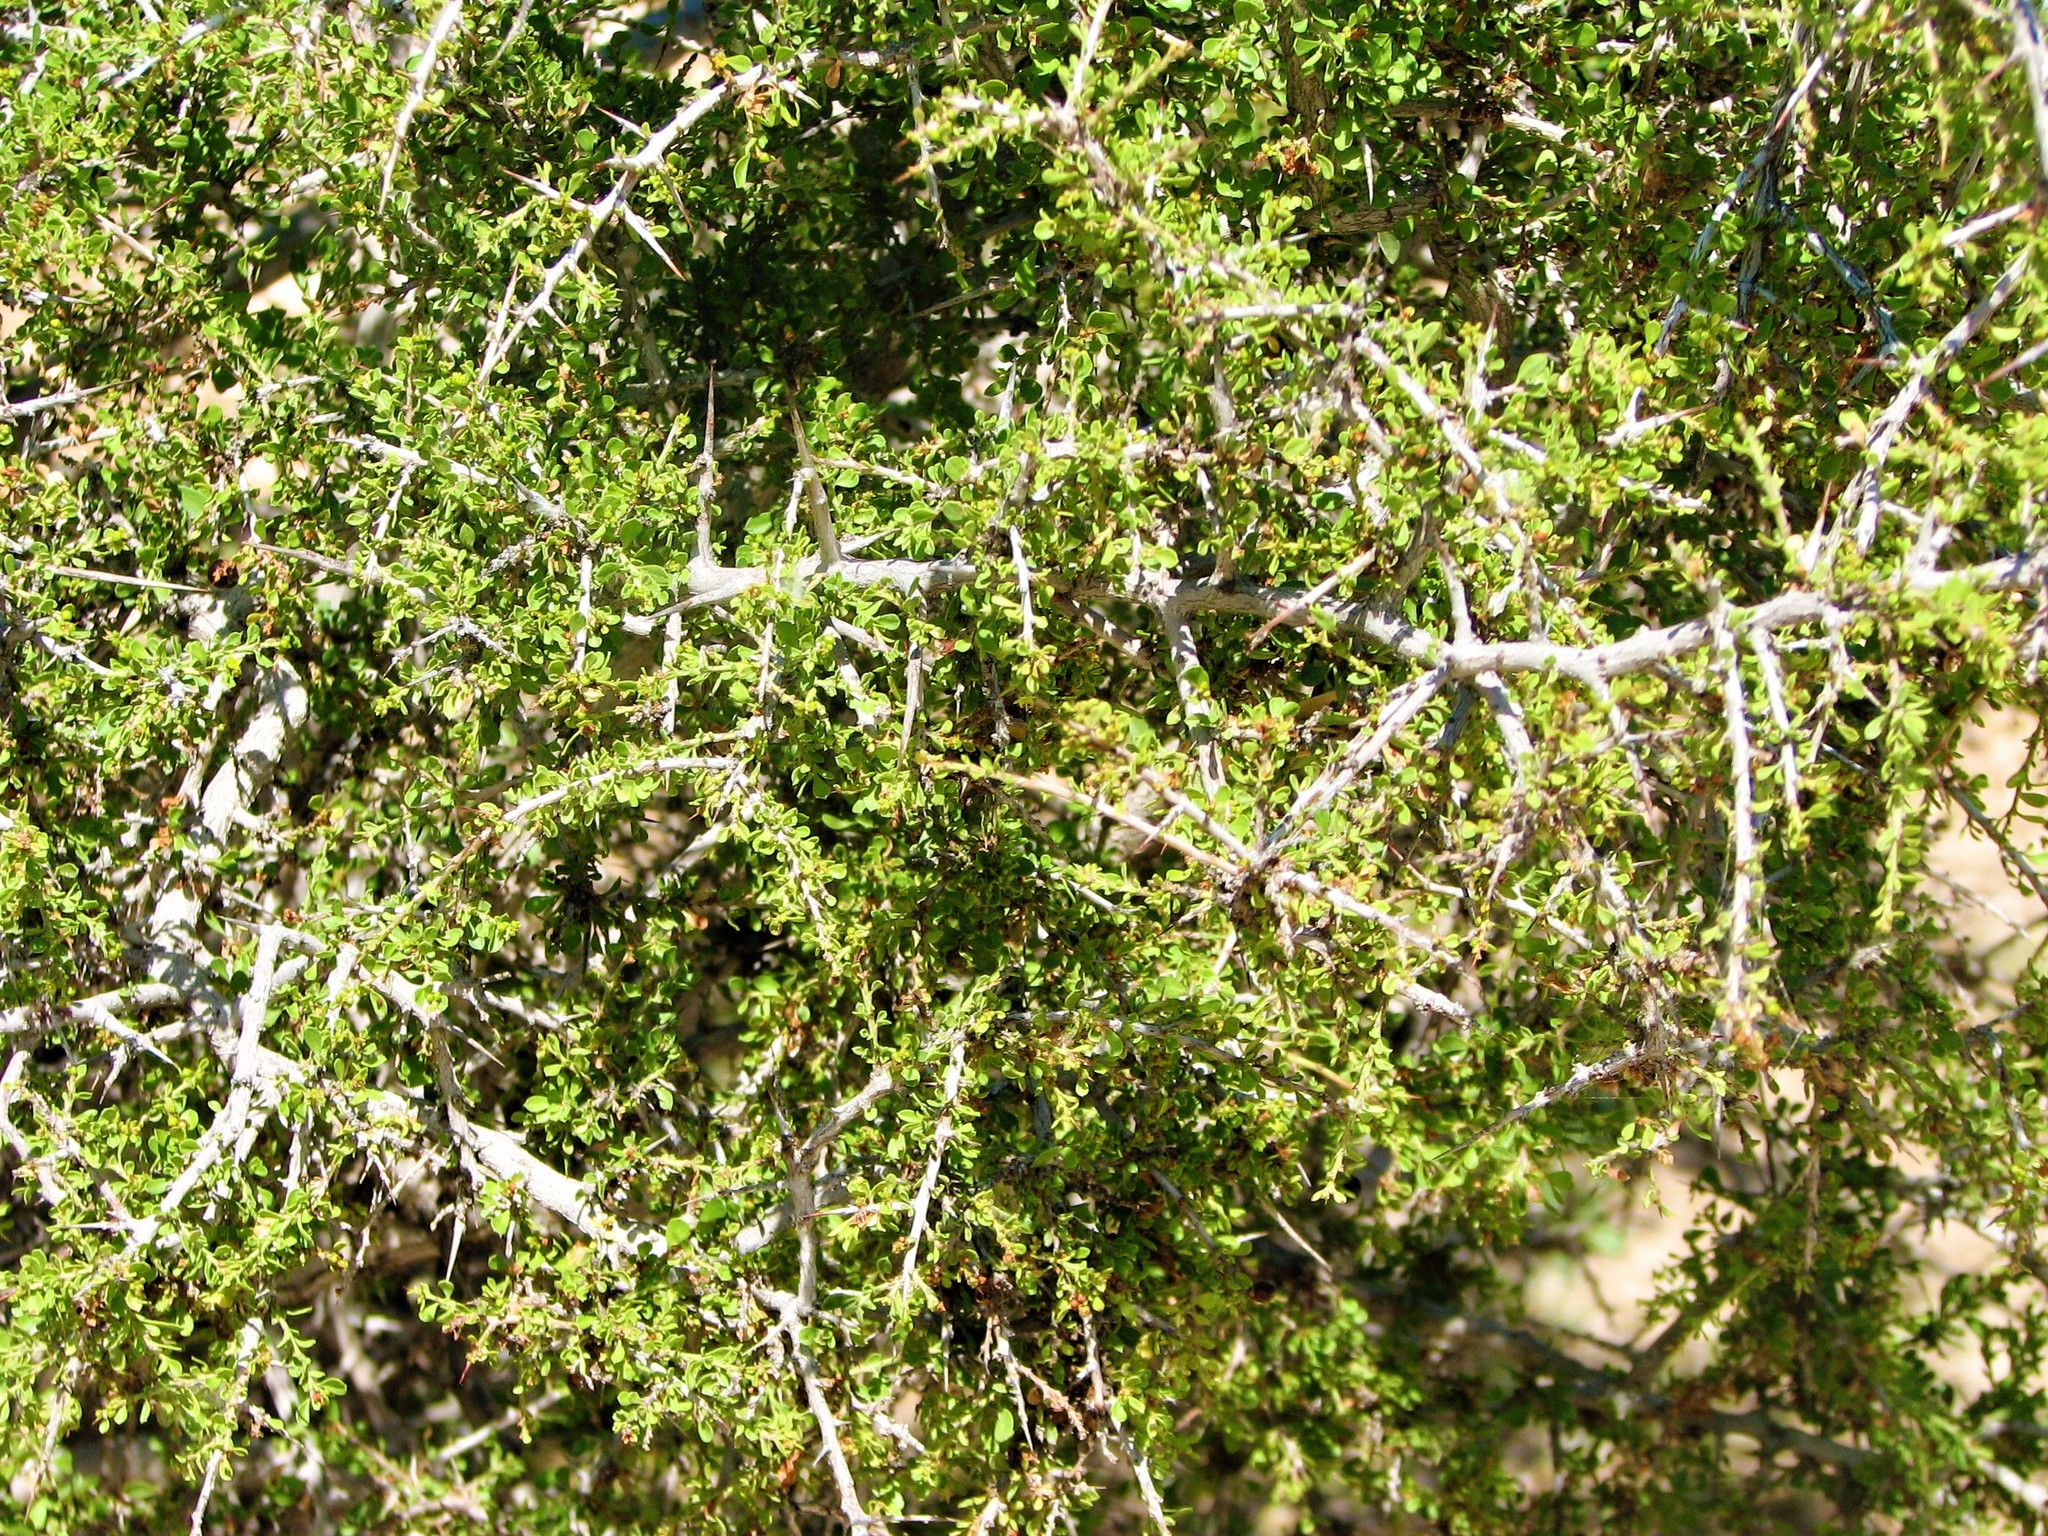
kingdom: Plantae
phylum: Tracheophyta
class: Magnoliopsida
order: Rosales
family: Rhamnaceae
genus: Condalia
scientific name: Condalia viridis
